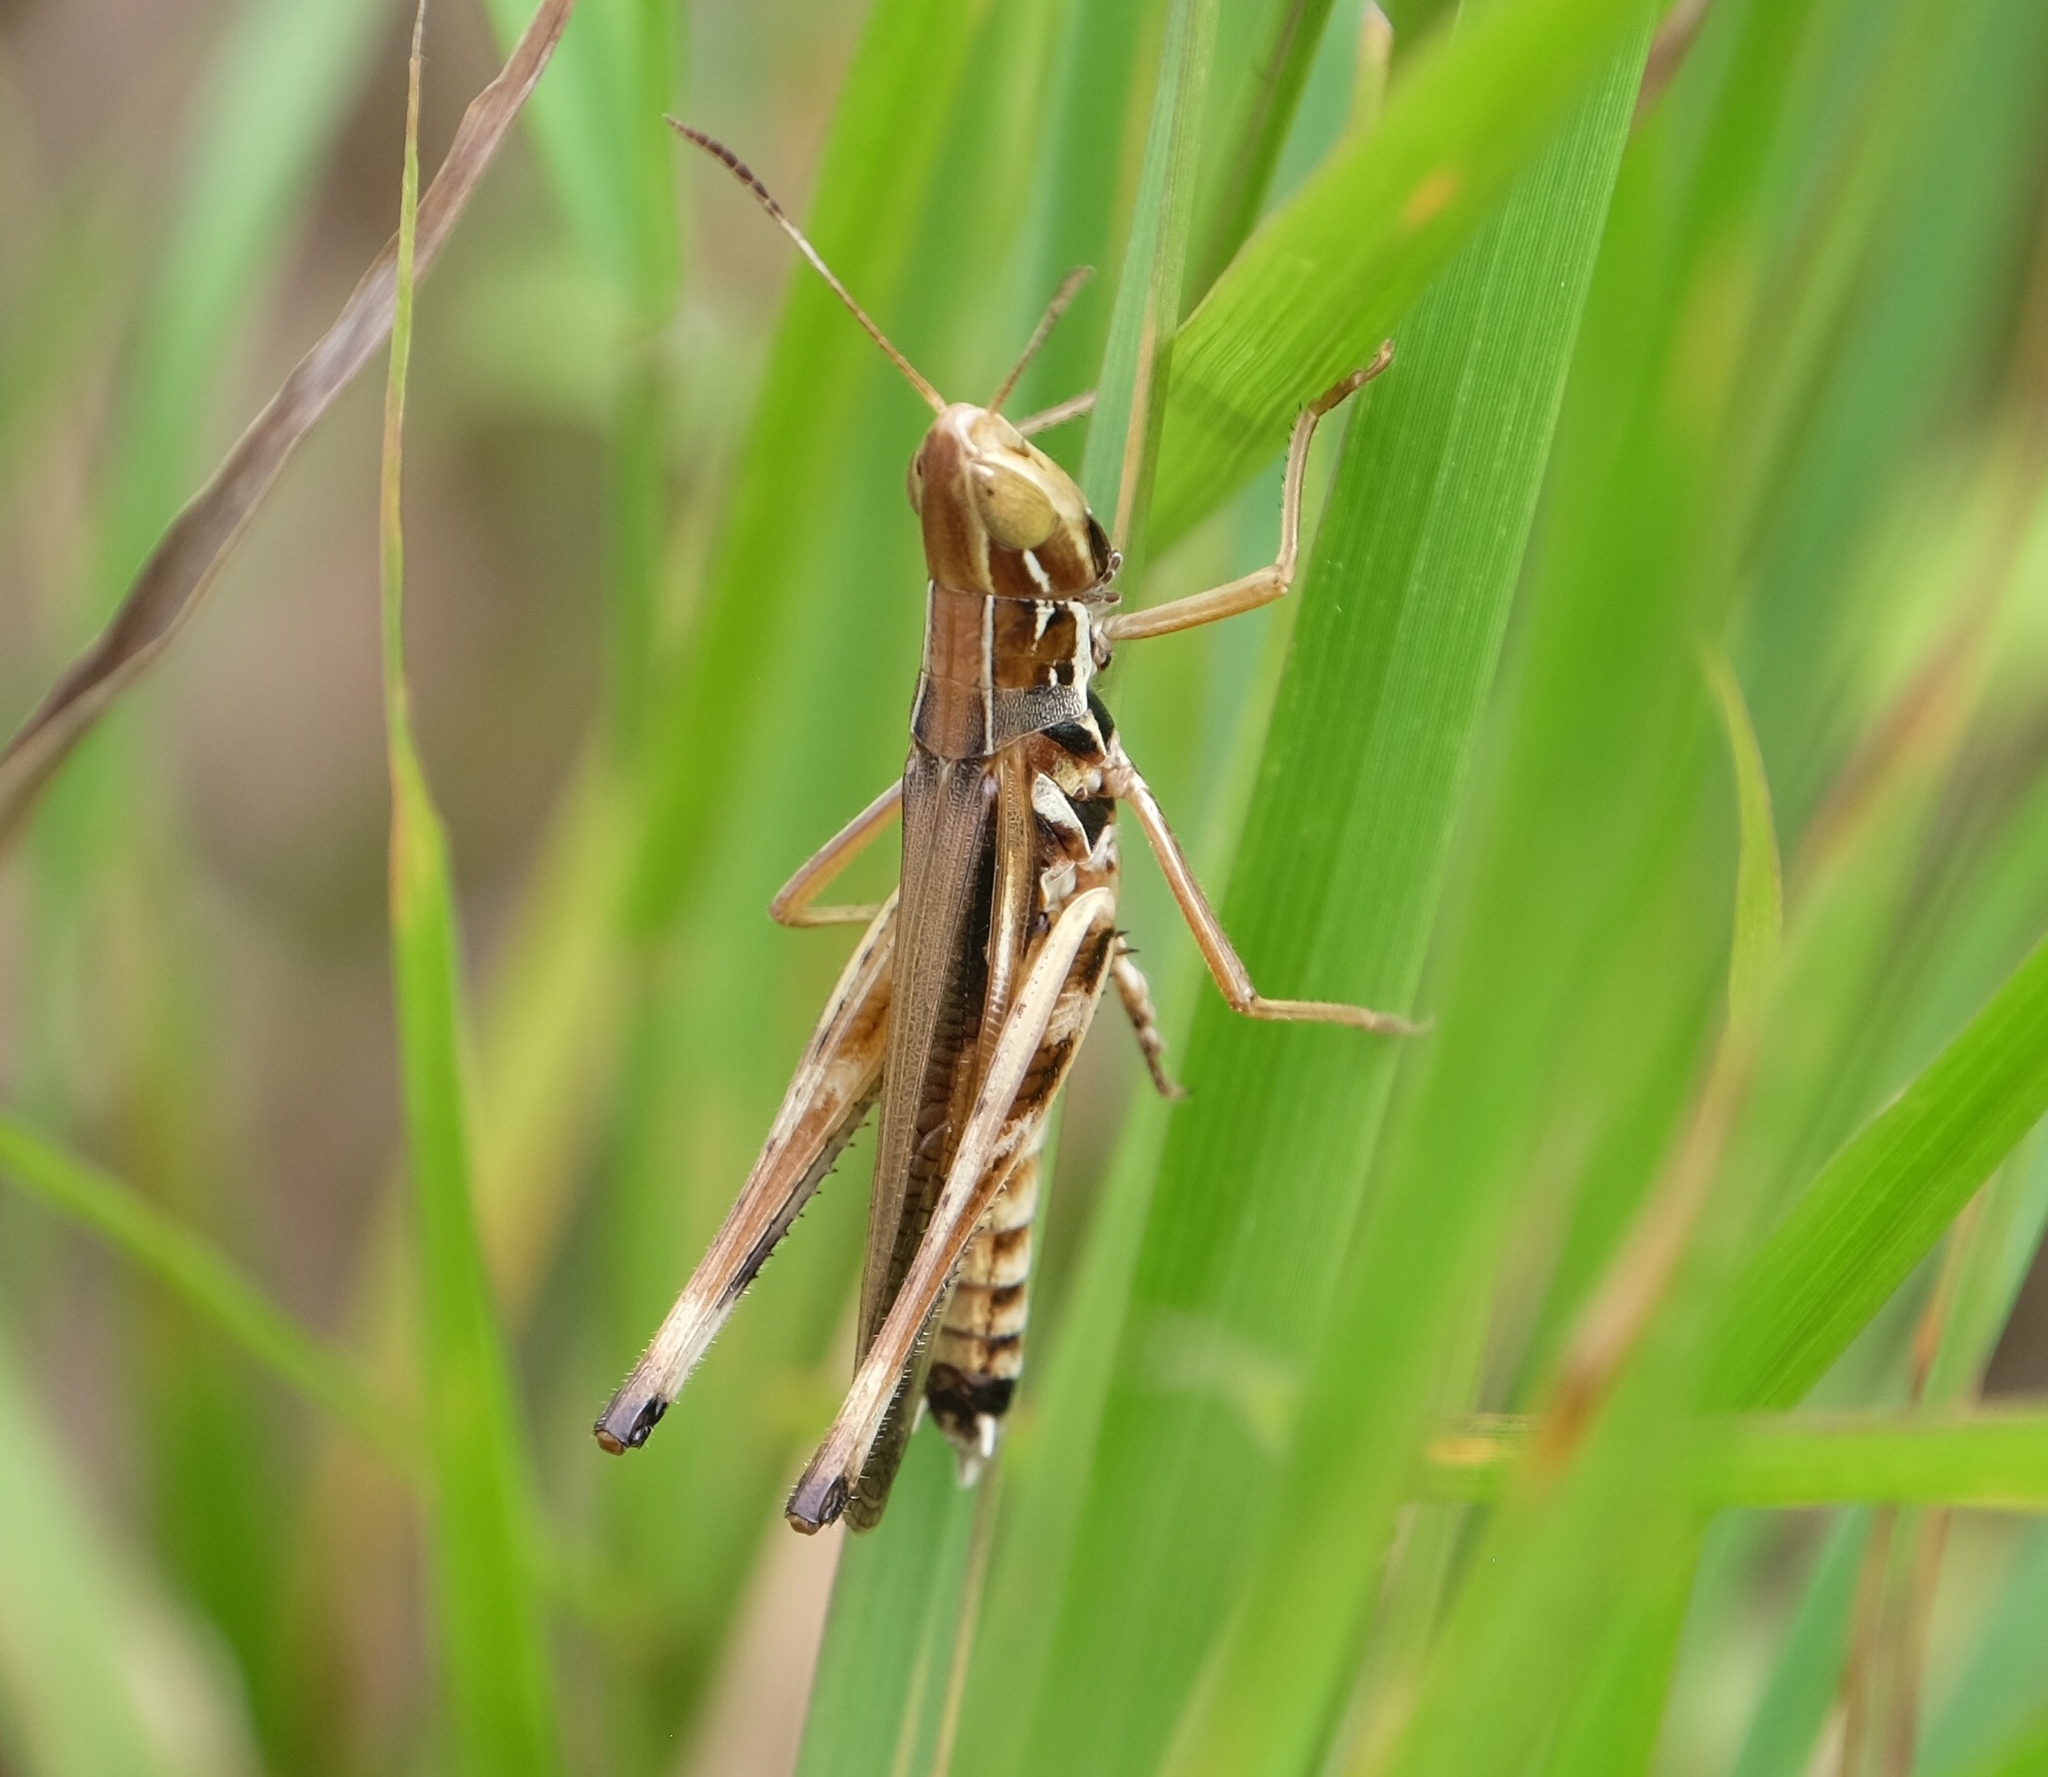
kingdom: Animalia
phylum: Arthropoda
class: Insecta
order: Orthoptera
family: Acrididae
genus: Syrbula
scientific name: Syrbula admirabilis
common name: Handsome grasshopper
